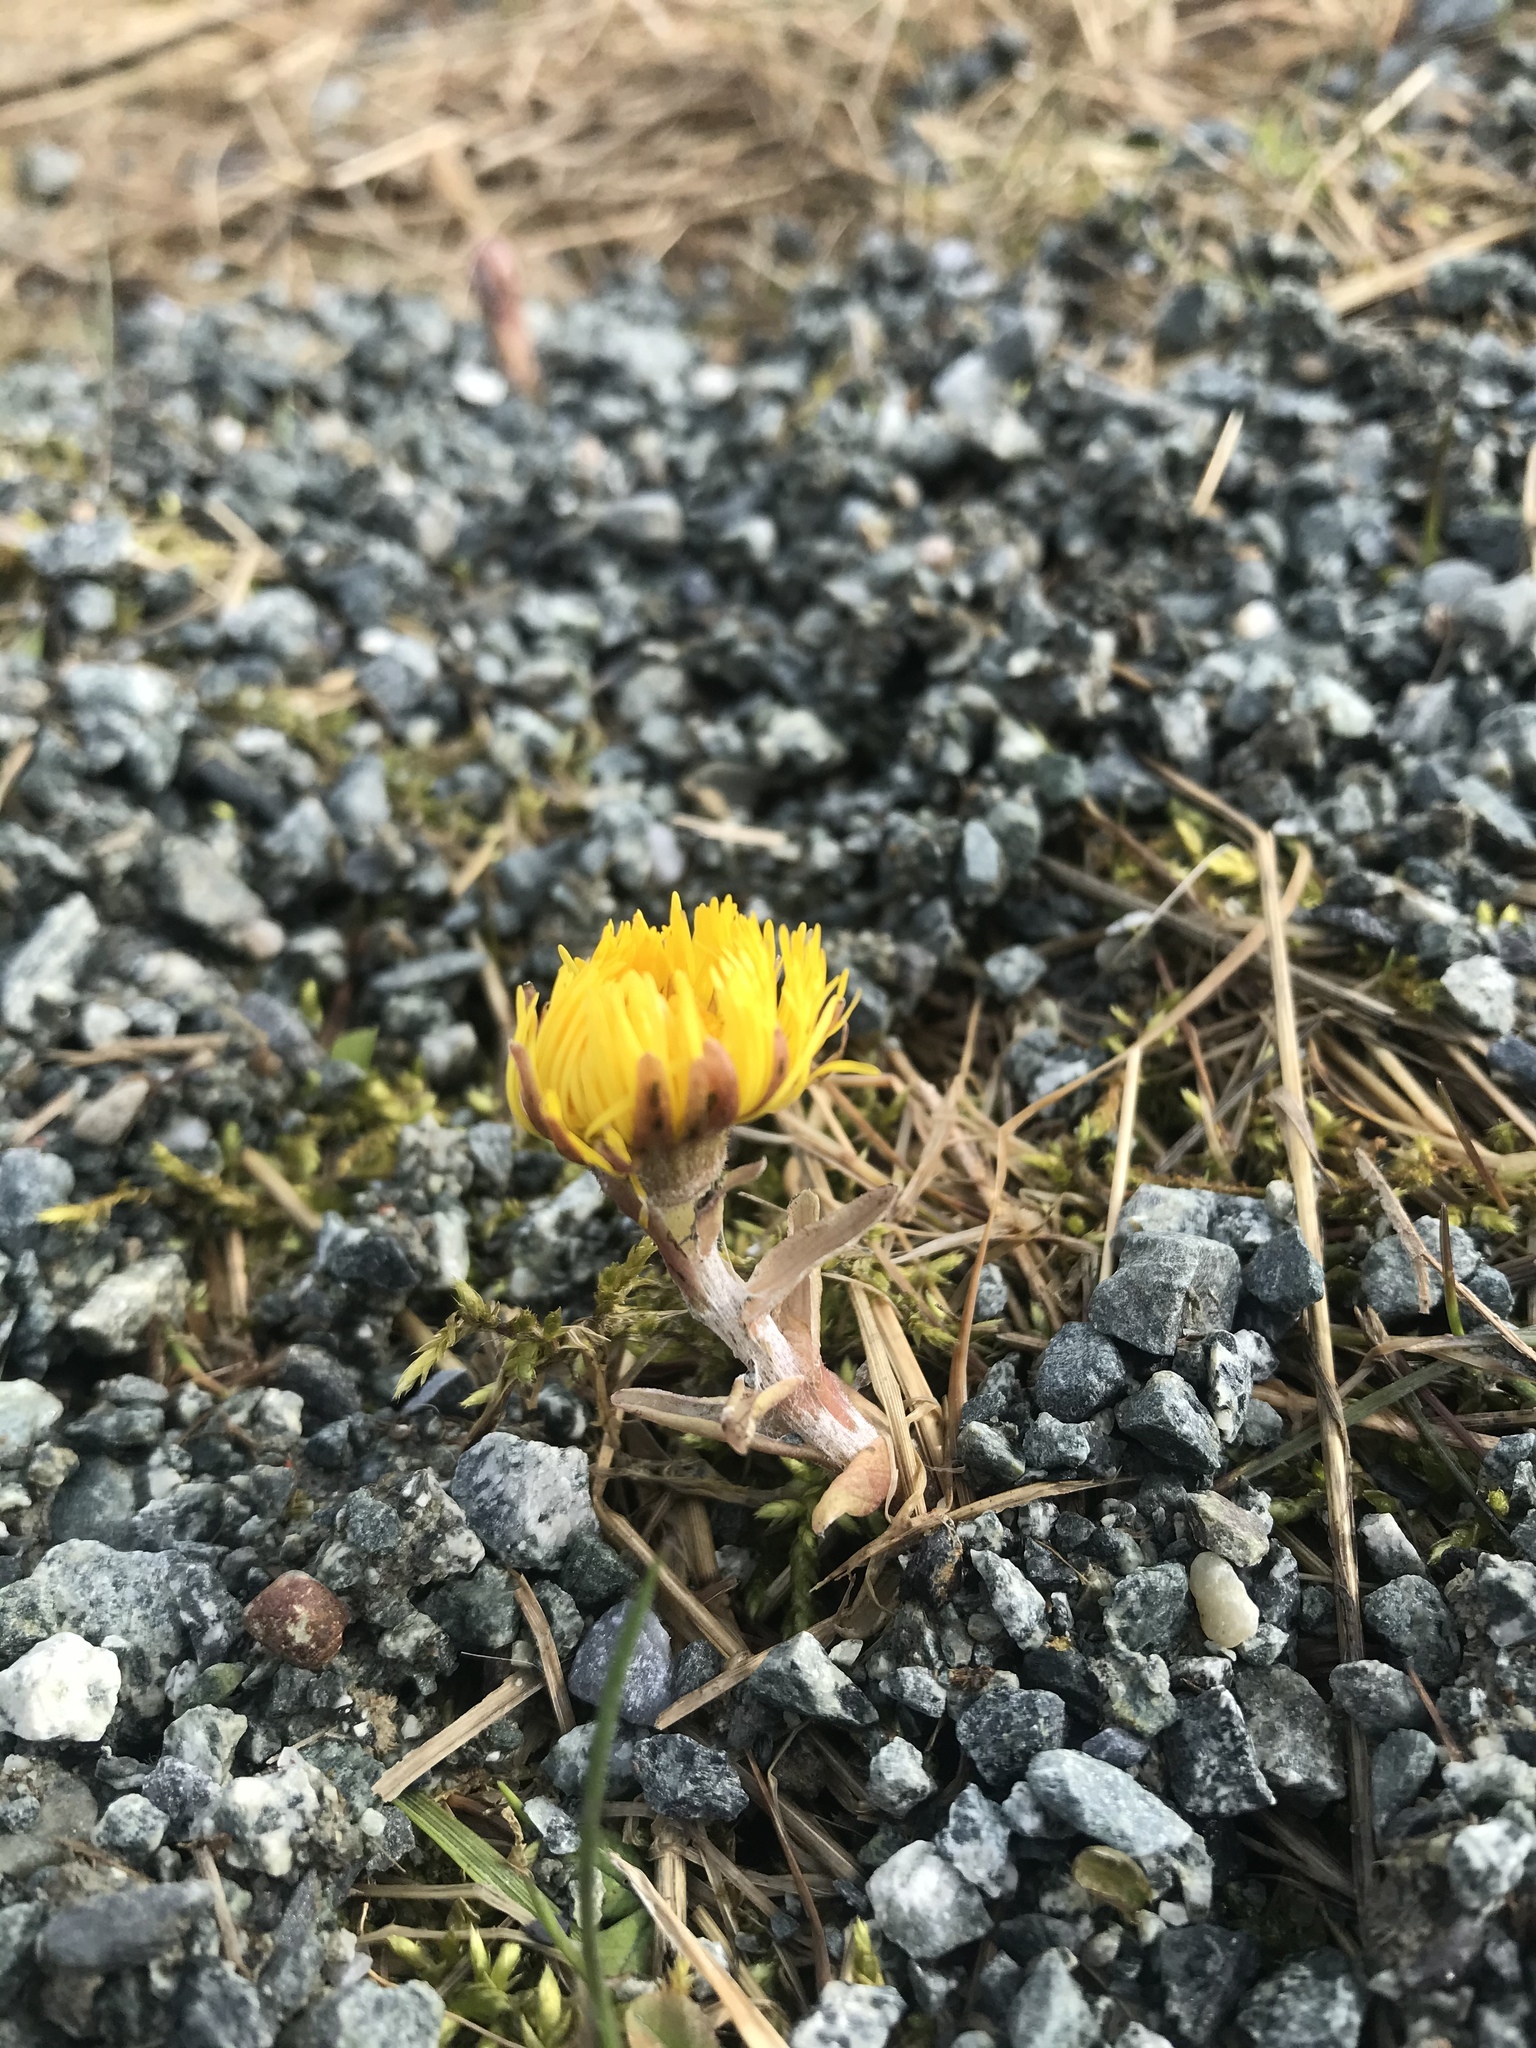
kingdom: Plantae
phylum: Tracheophyta
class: Magnoliopsida
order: Asterales
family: Asteraceae
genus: Tussilago
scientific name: Tussilago farfara
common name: Coltsfoot
